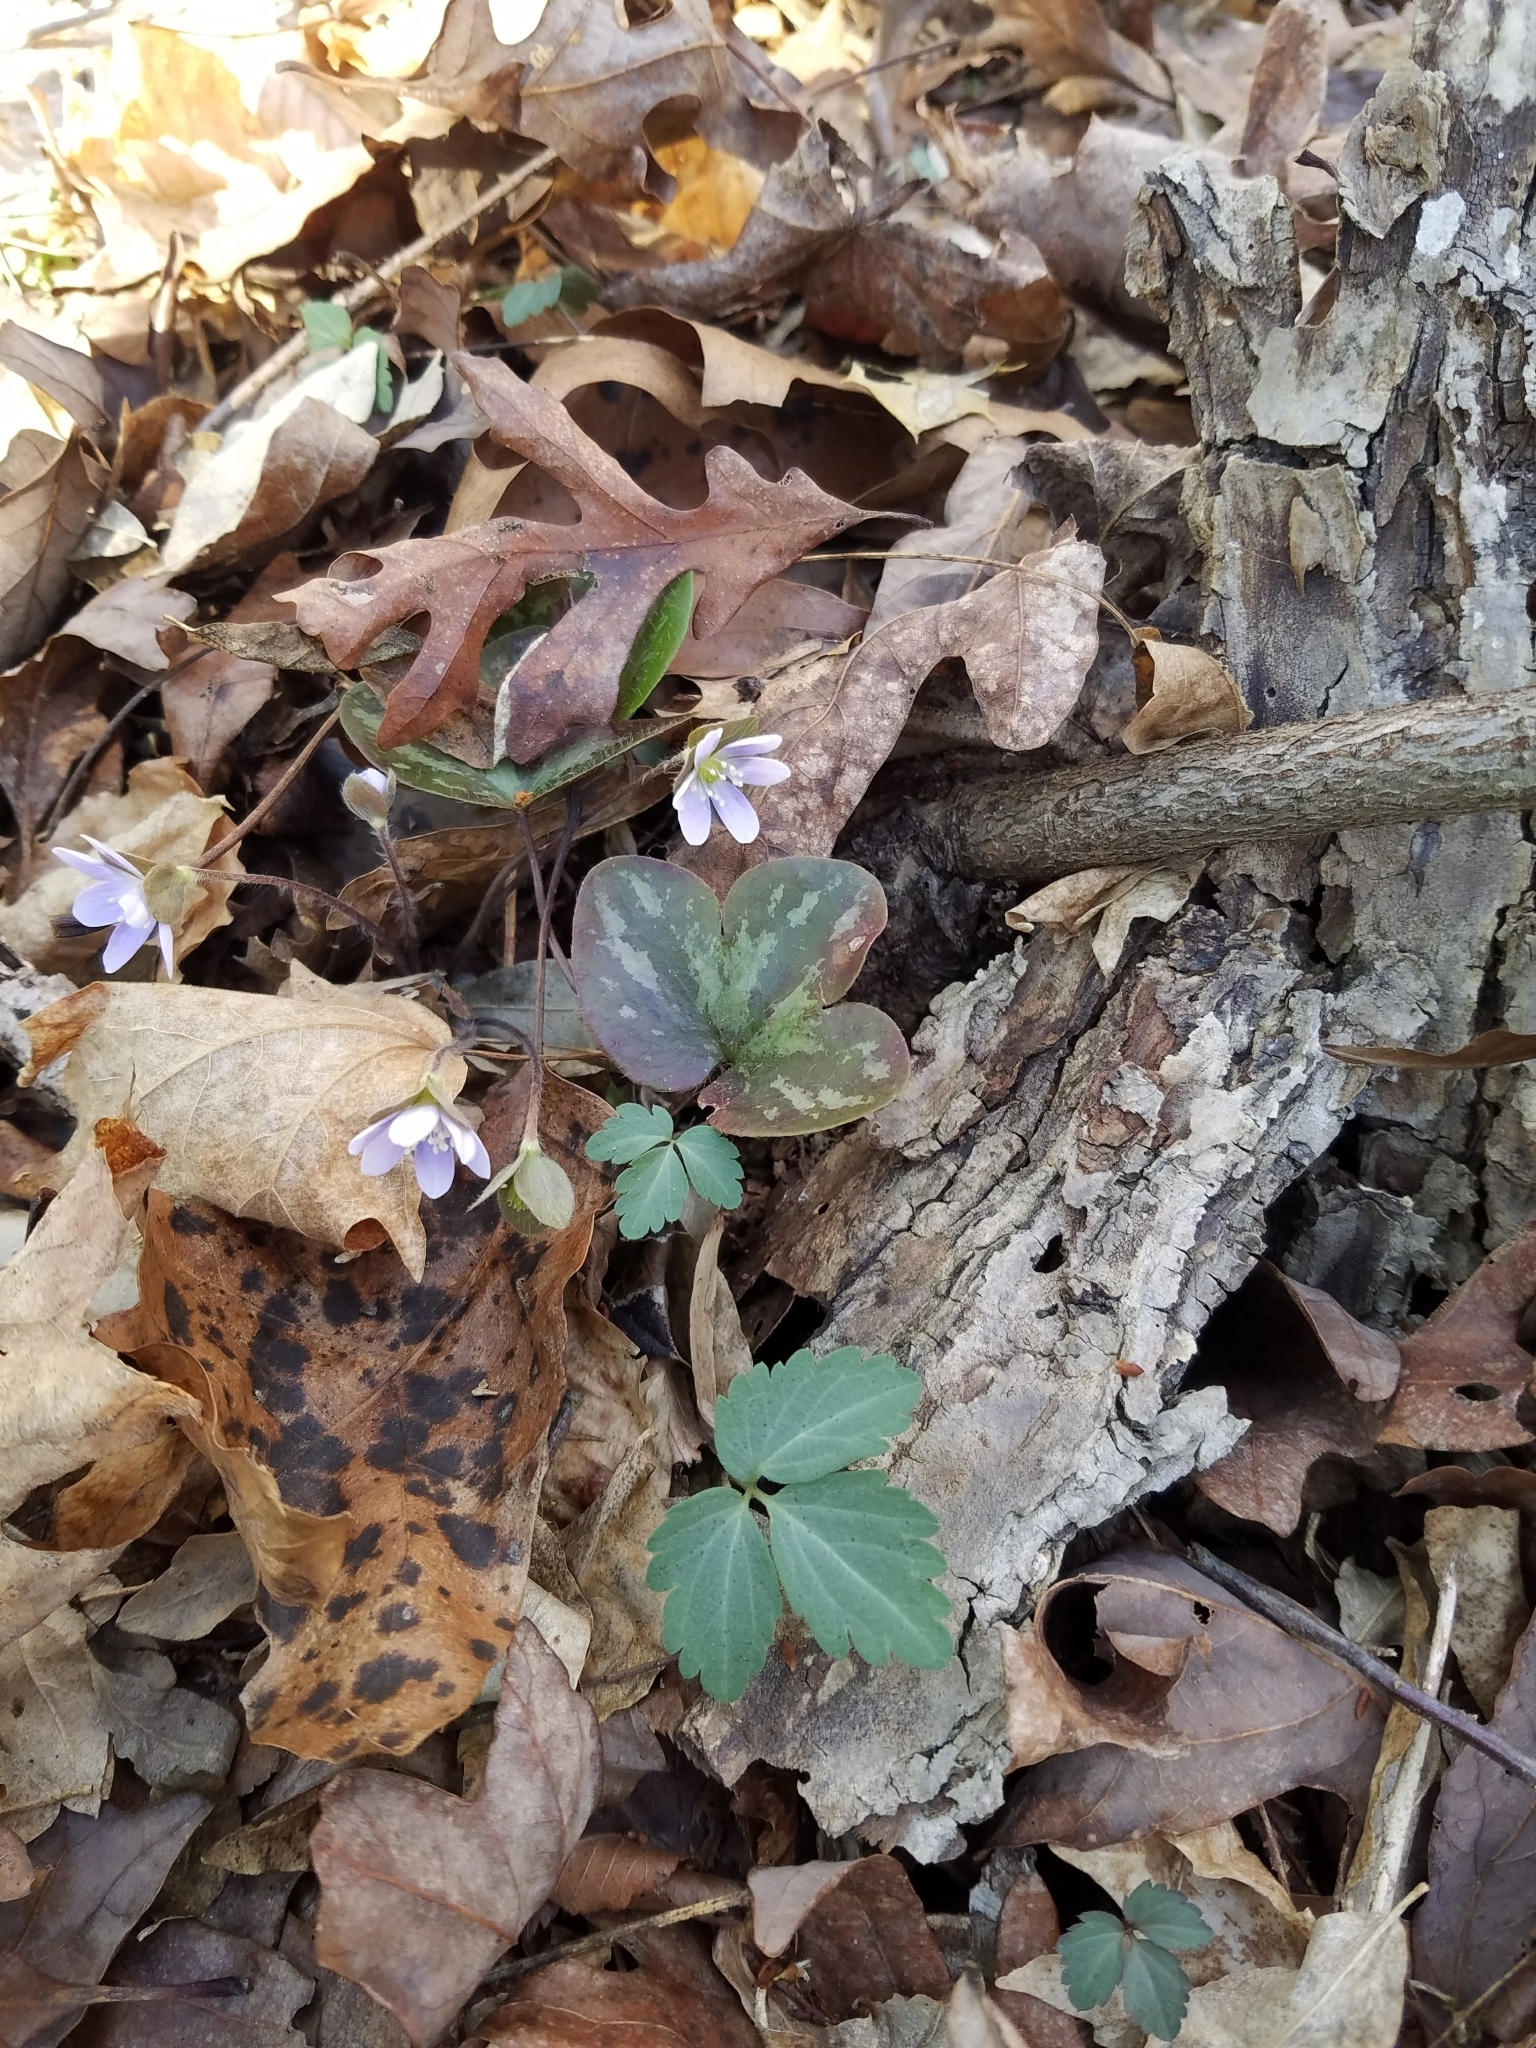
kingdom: Plantae
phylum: Tracheophyta
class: Magnoliopsida
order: Ranunculales
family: Ranunculaceae
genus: Hepatica
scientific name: Hepatica americana
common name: American hepatica
